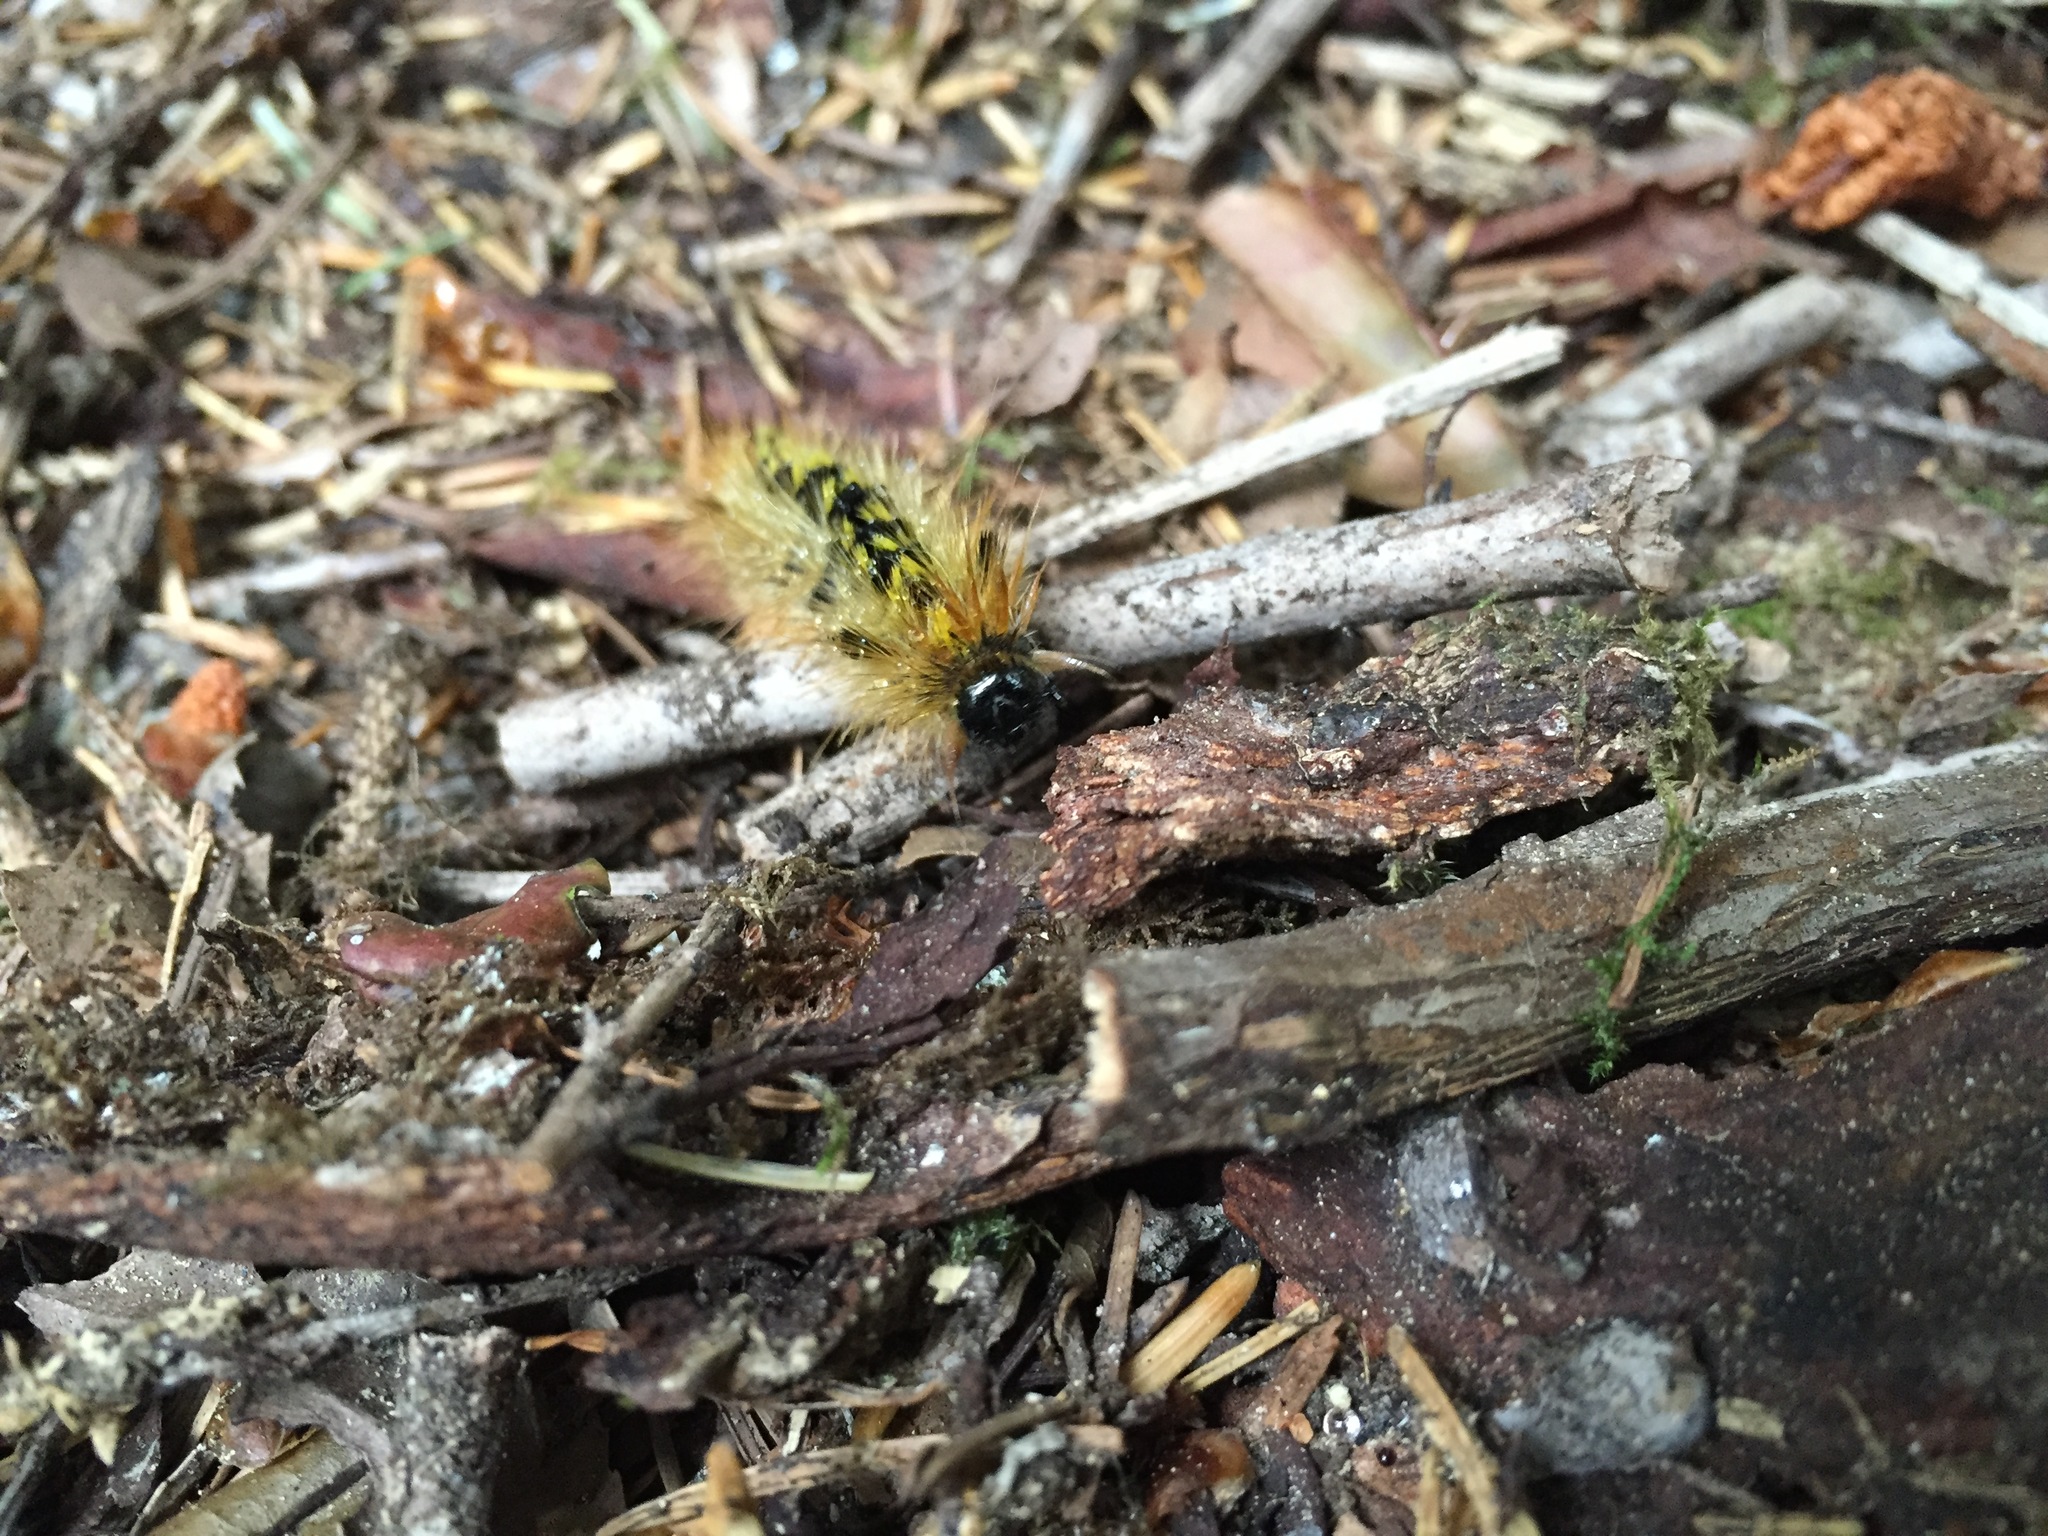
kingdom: Animalia
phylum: Arthropoda
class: Insecta
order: Lepidoptera
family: Erebidae
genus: Lophocampa
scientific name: Lophocampa argentata
